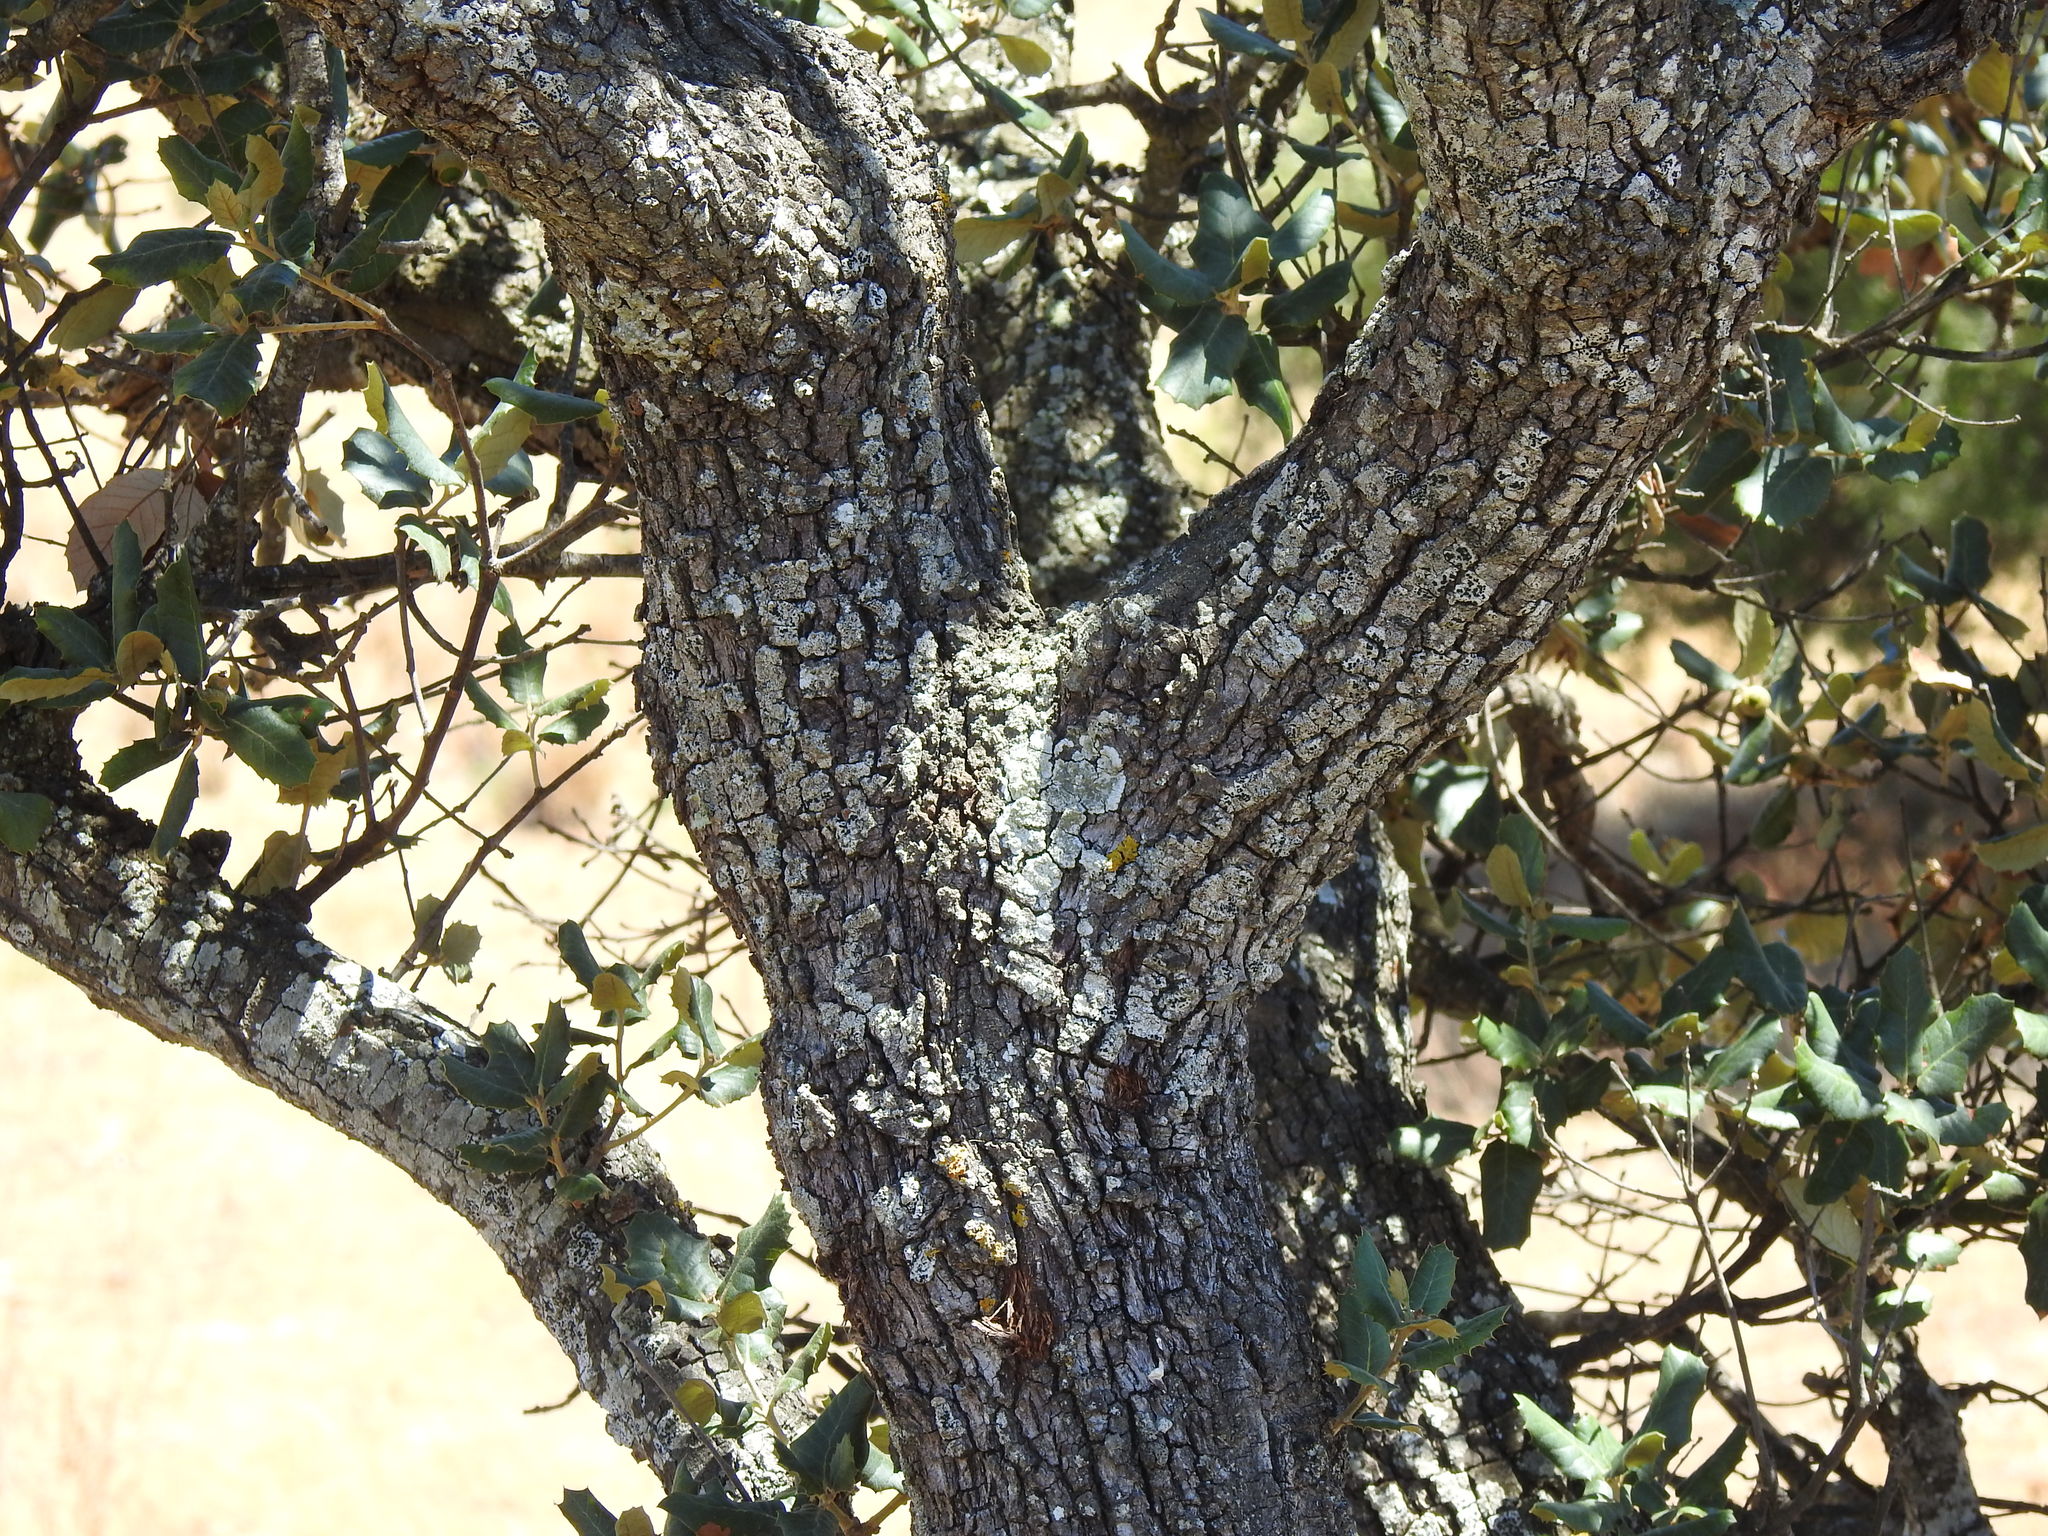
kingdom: Plantae
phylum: Tracheophyta
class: Magnoliopsida
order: Fagales
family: Fagaceae
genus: Quercus
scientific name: Quercus rotundifolia
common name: Holm oak
